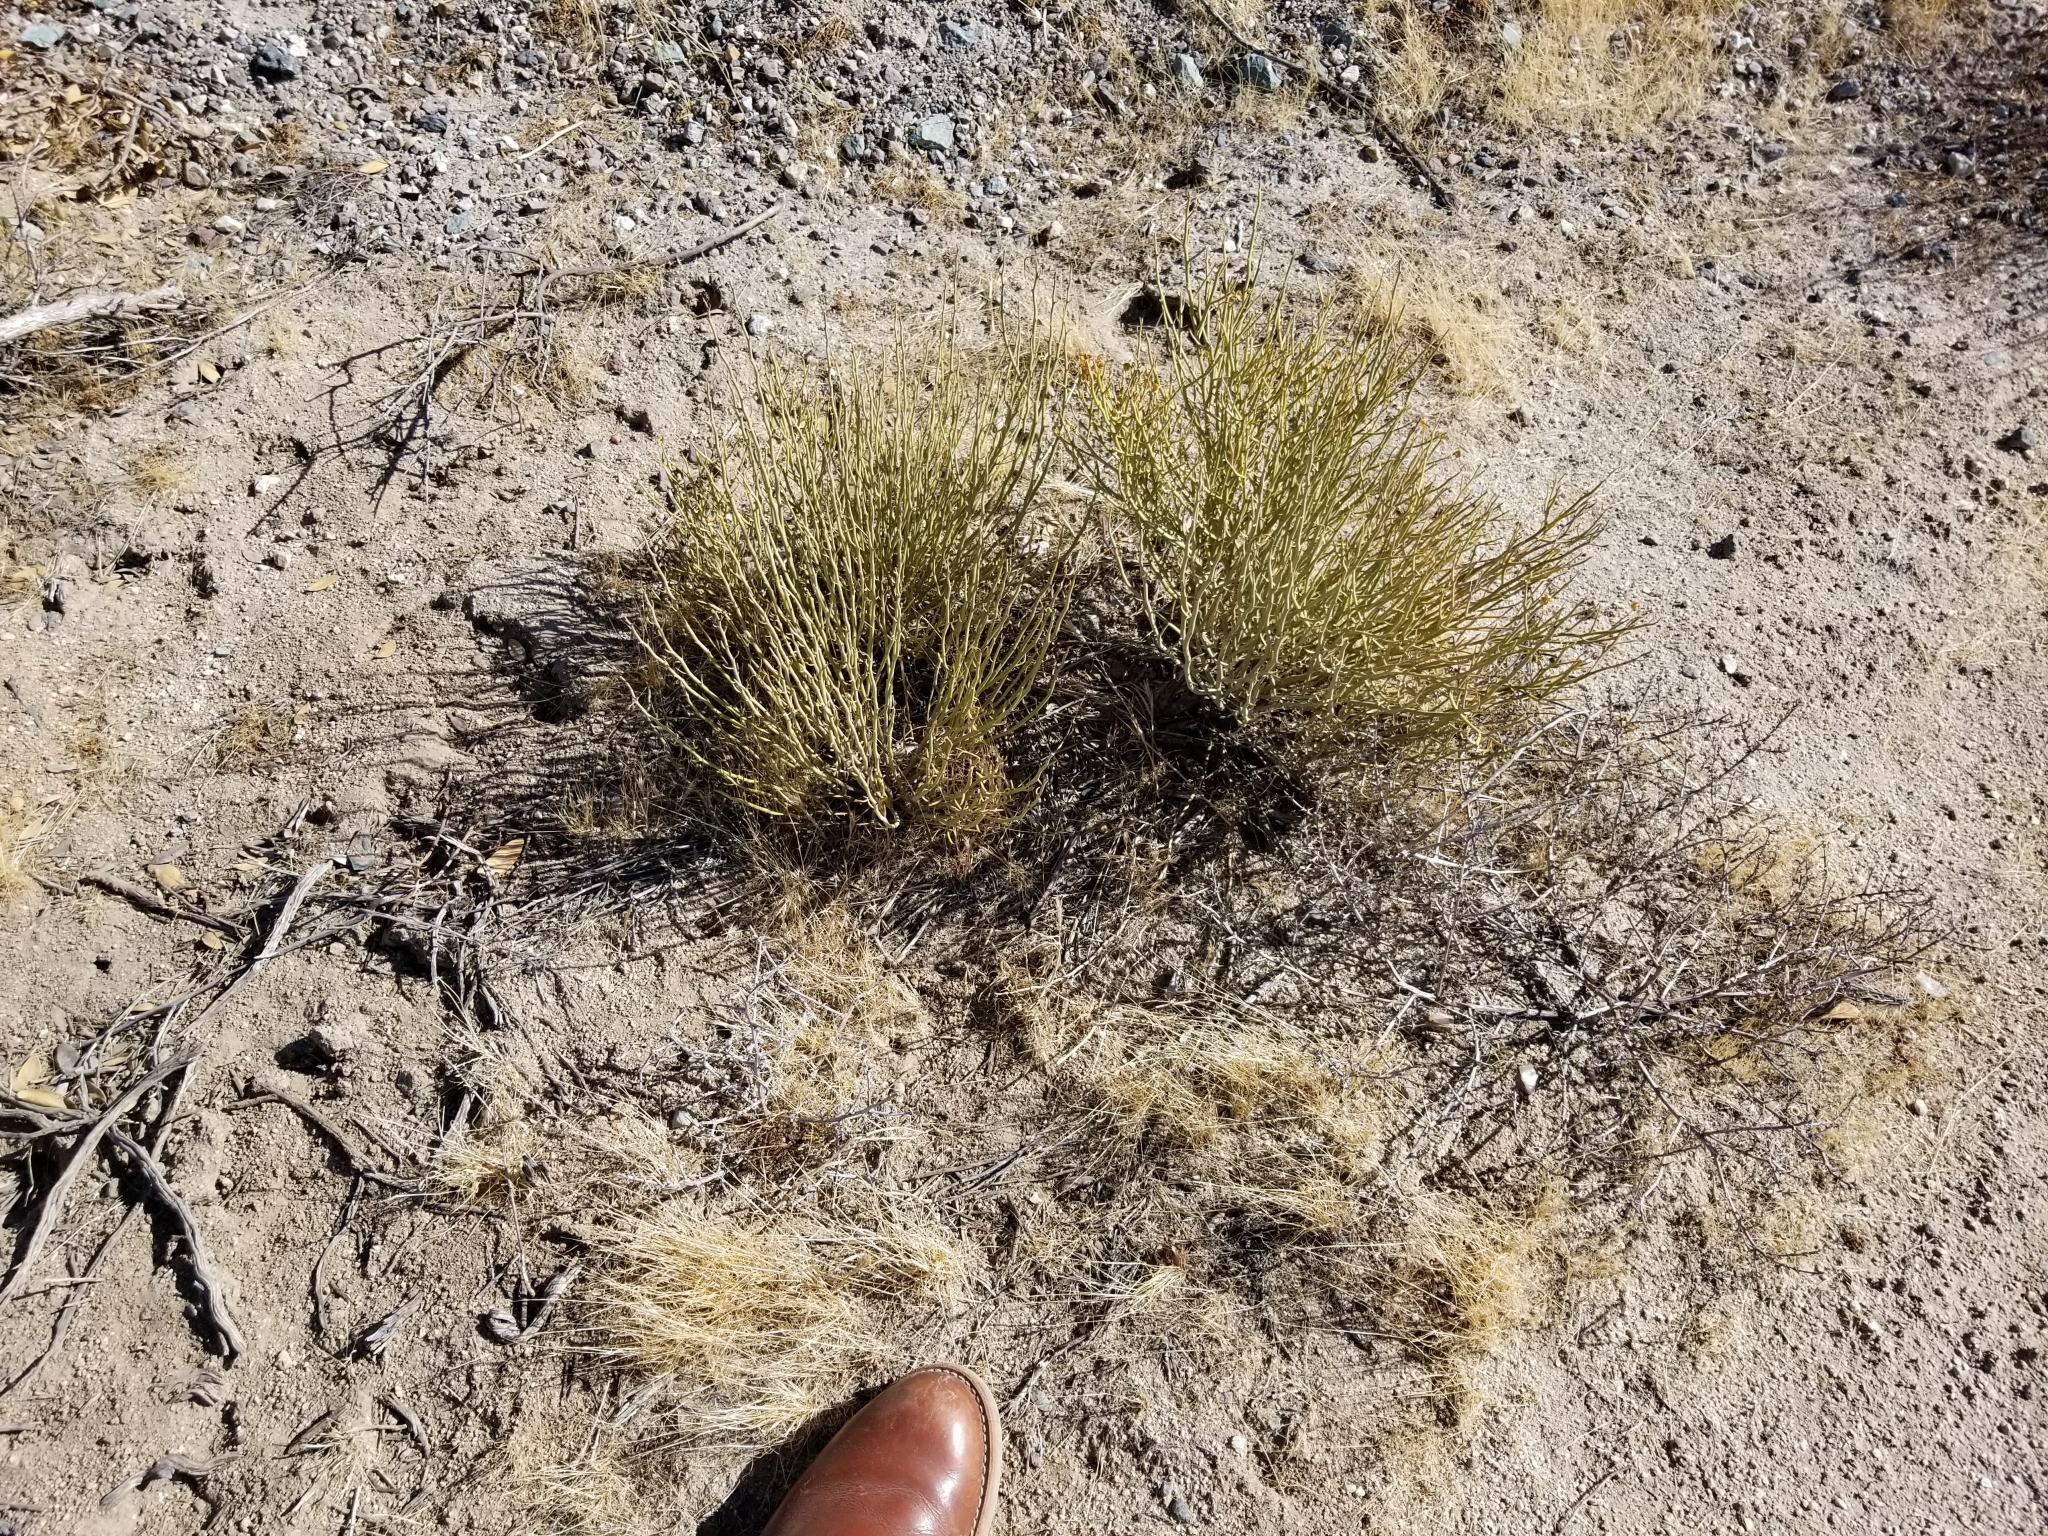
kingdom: Plantae
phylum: Tracheophyta
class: Magnoliopsida
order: Sapindales
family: Rutaceae
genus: Thamnosma
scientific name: Thamnosma montana
